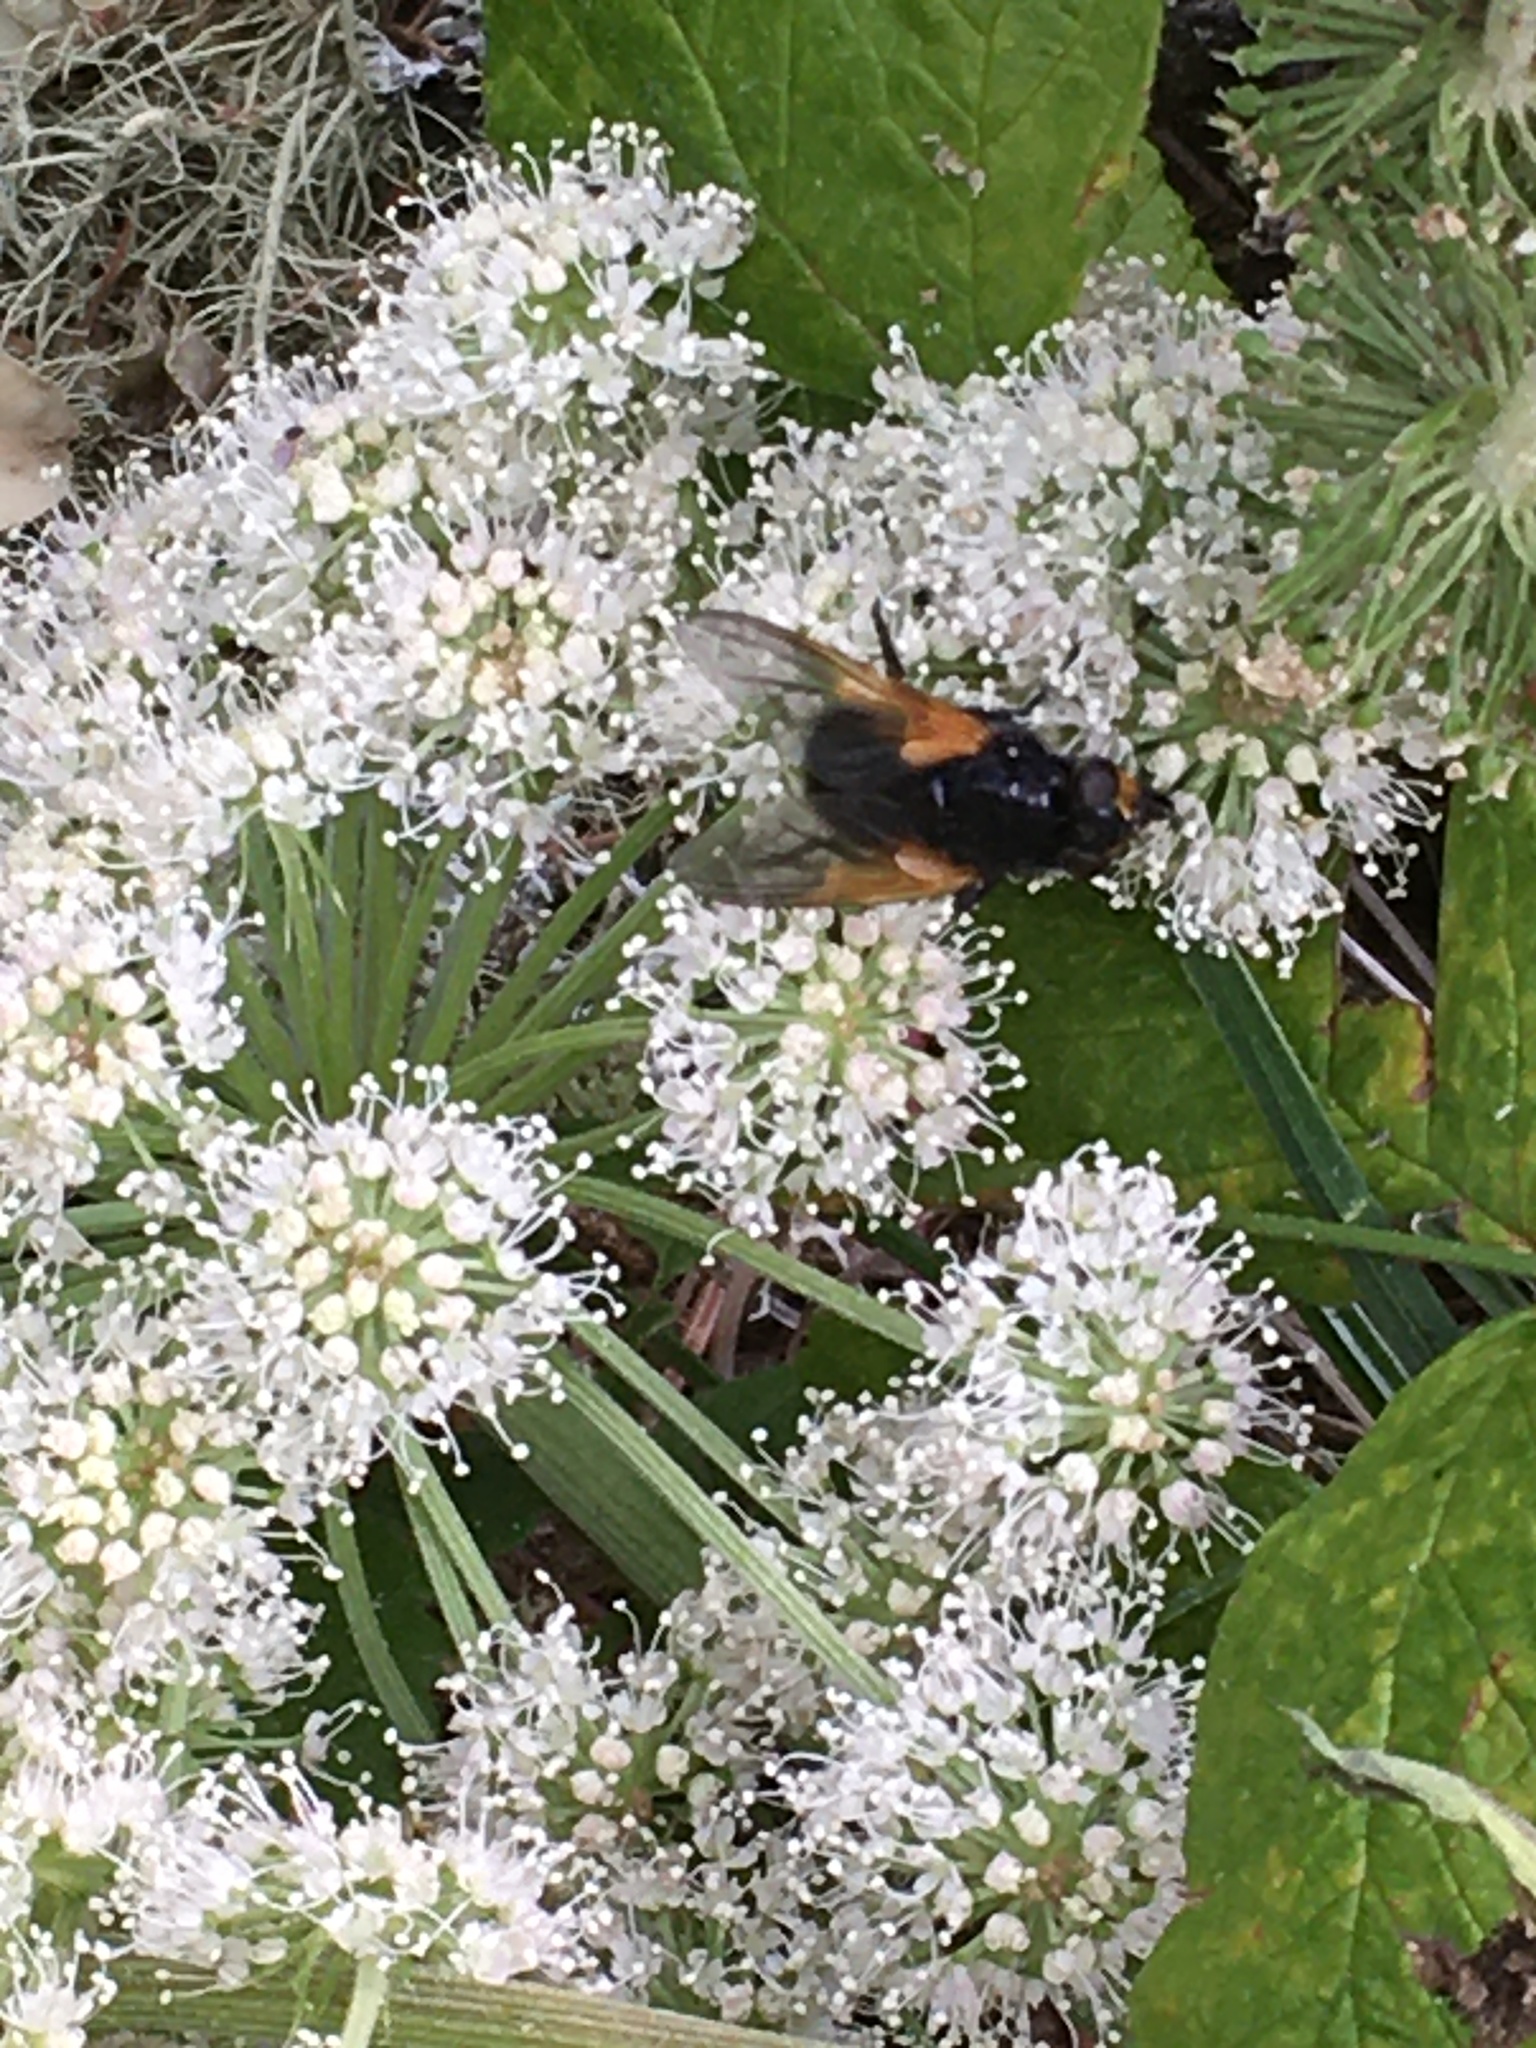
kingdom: Animalia
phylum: Arthropoda
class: Insecta
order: Diptera
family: Muscidae
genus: Mesembrina
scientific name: Mesembrina meridiana
